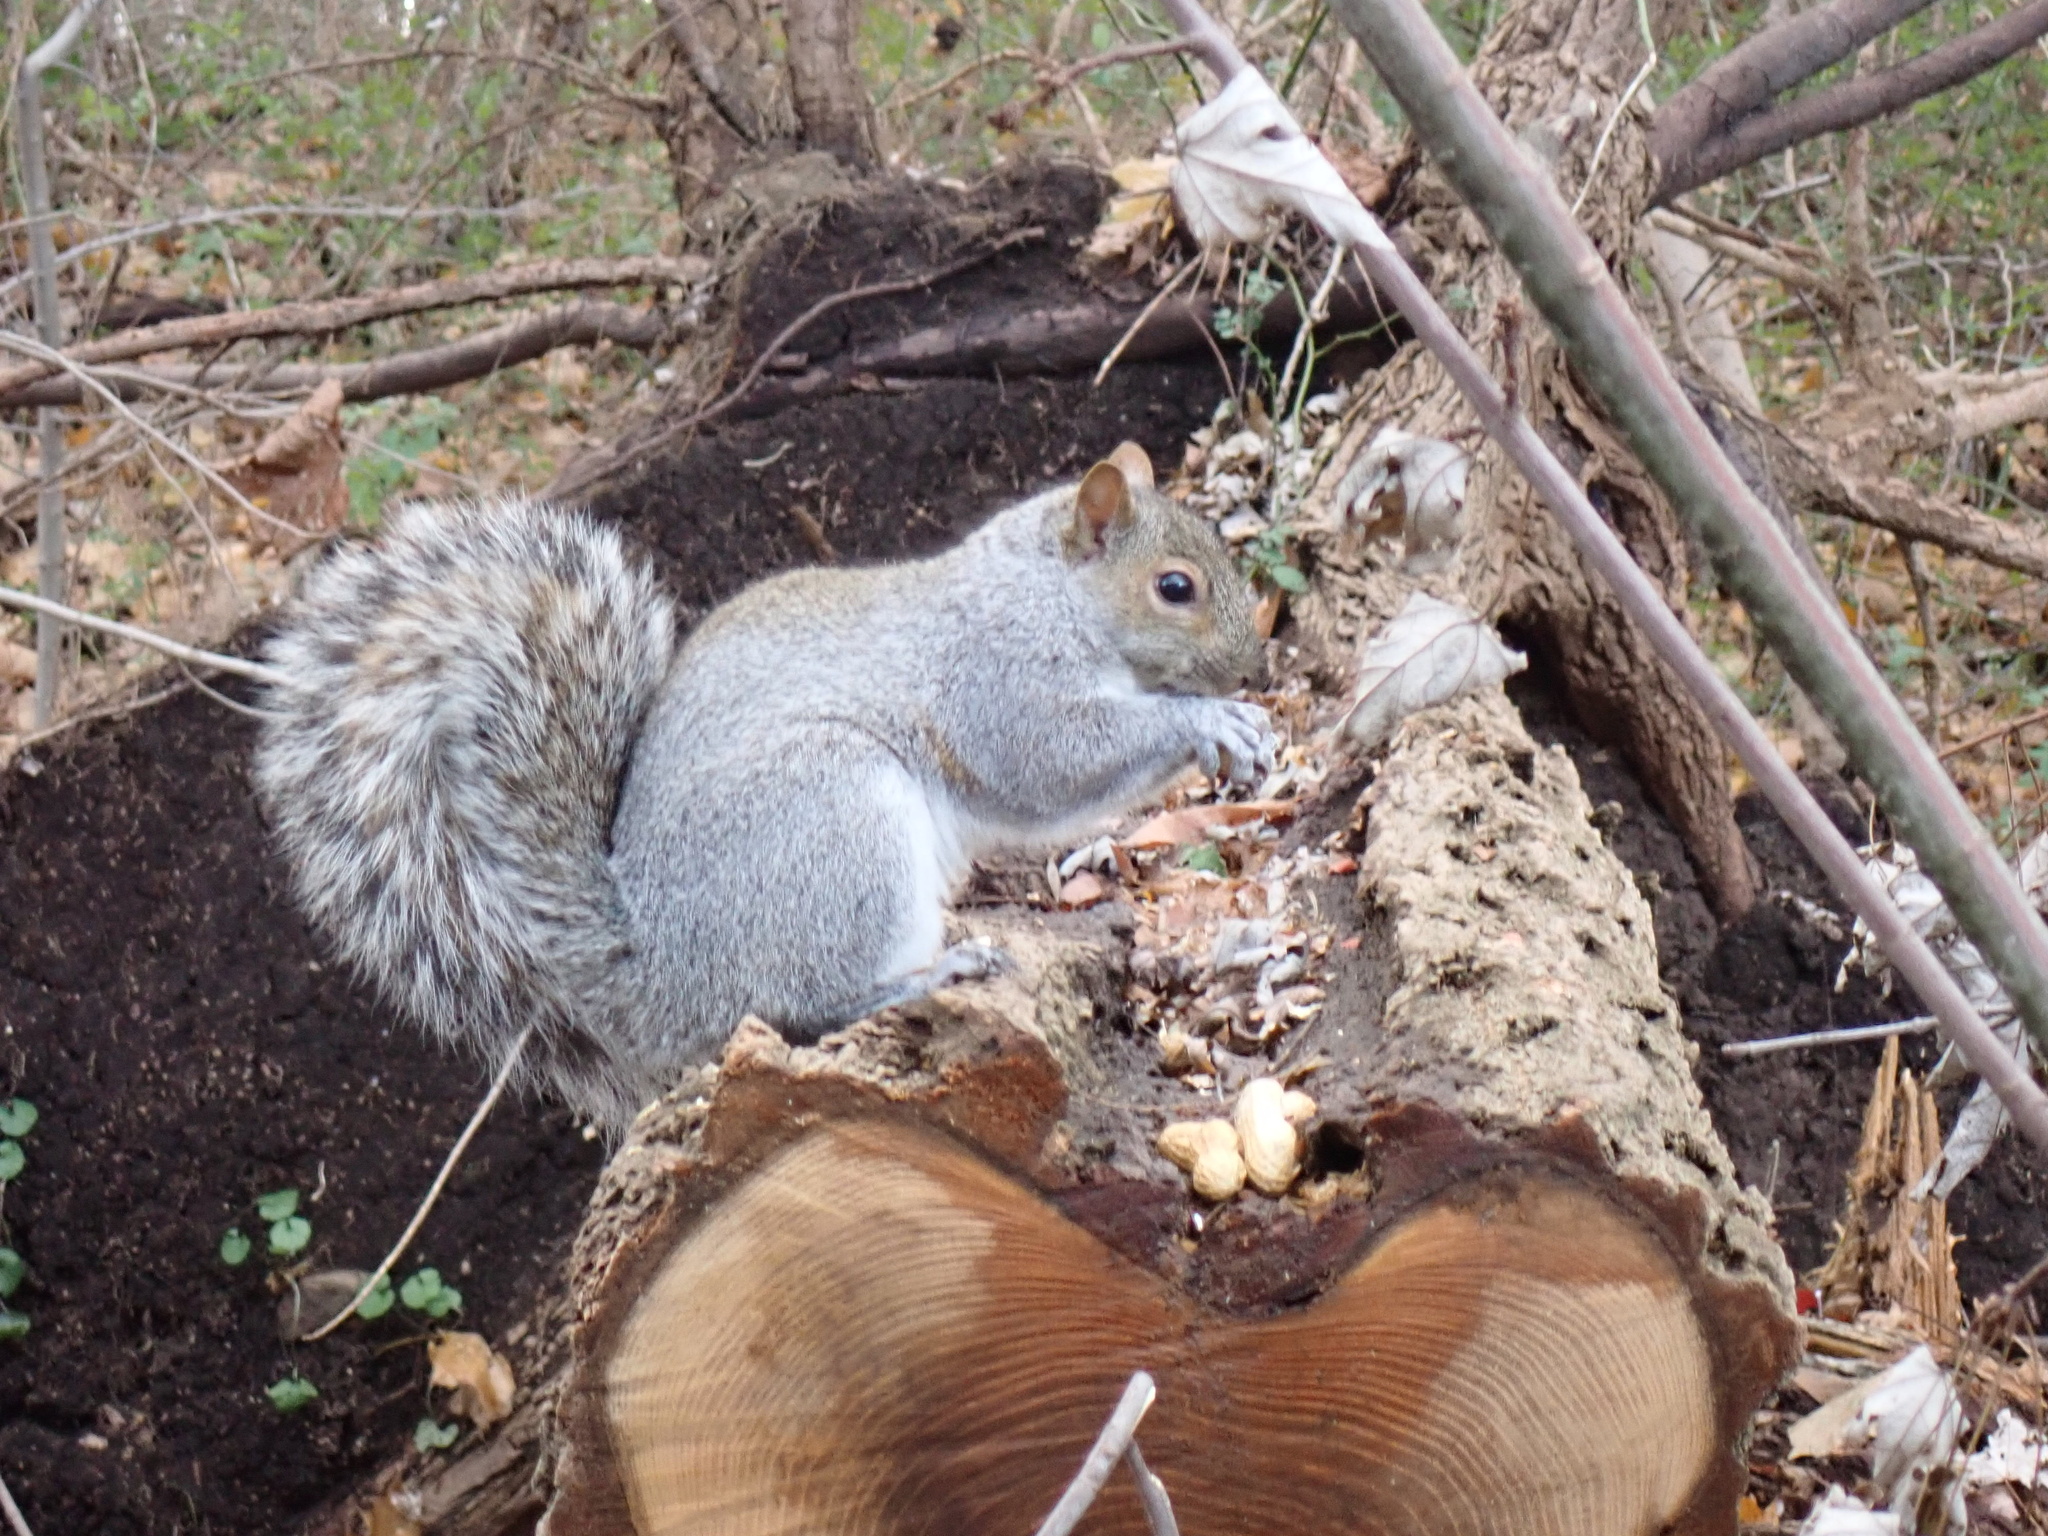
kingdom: Animalia
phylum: Chordata
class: Mammalia
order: Rodentia
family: Sciuridae
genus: Sciurus
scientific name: Sciurus carolinensis
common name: Eastern gray squirrel
